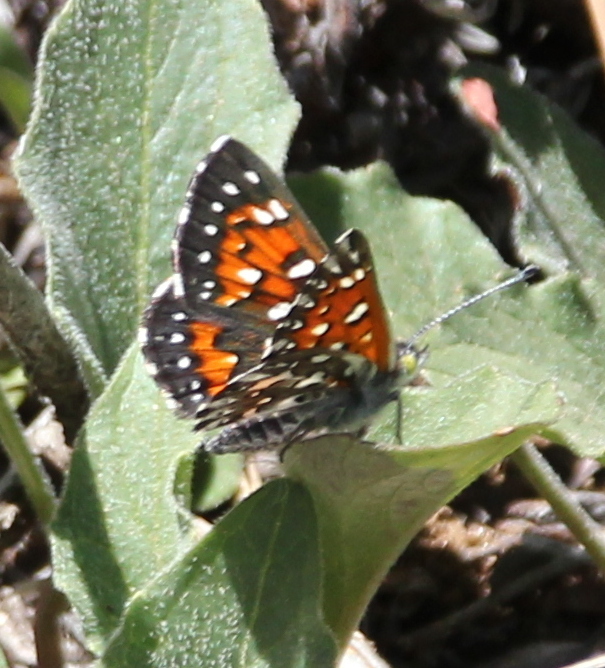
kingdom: Animalia
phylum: Arthropoda
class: Insecta
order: Lepidoptera
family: Riodinidae
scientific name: Riodinidae
